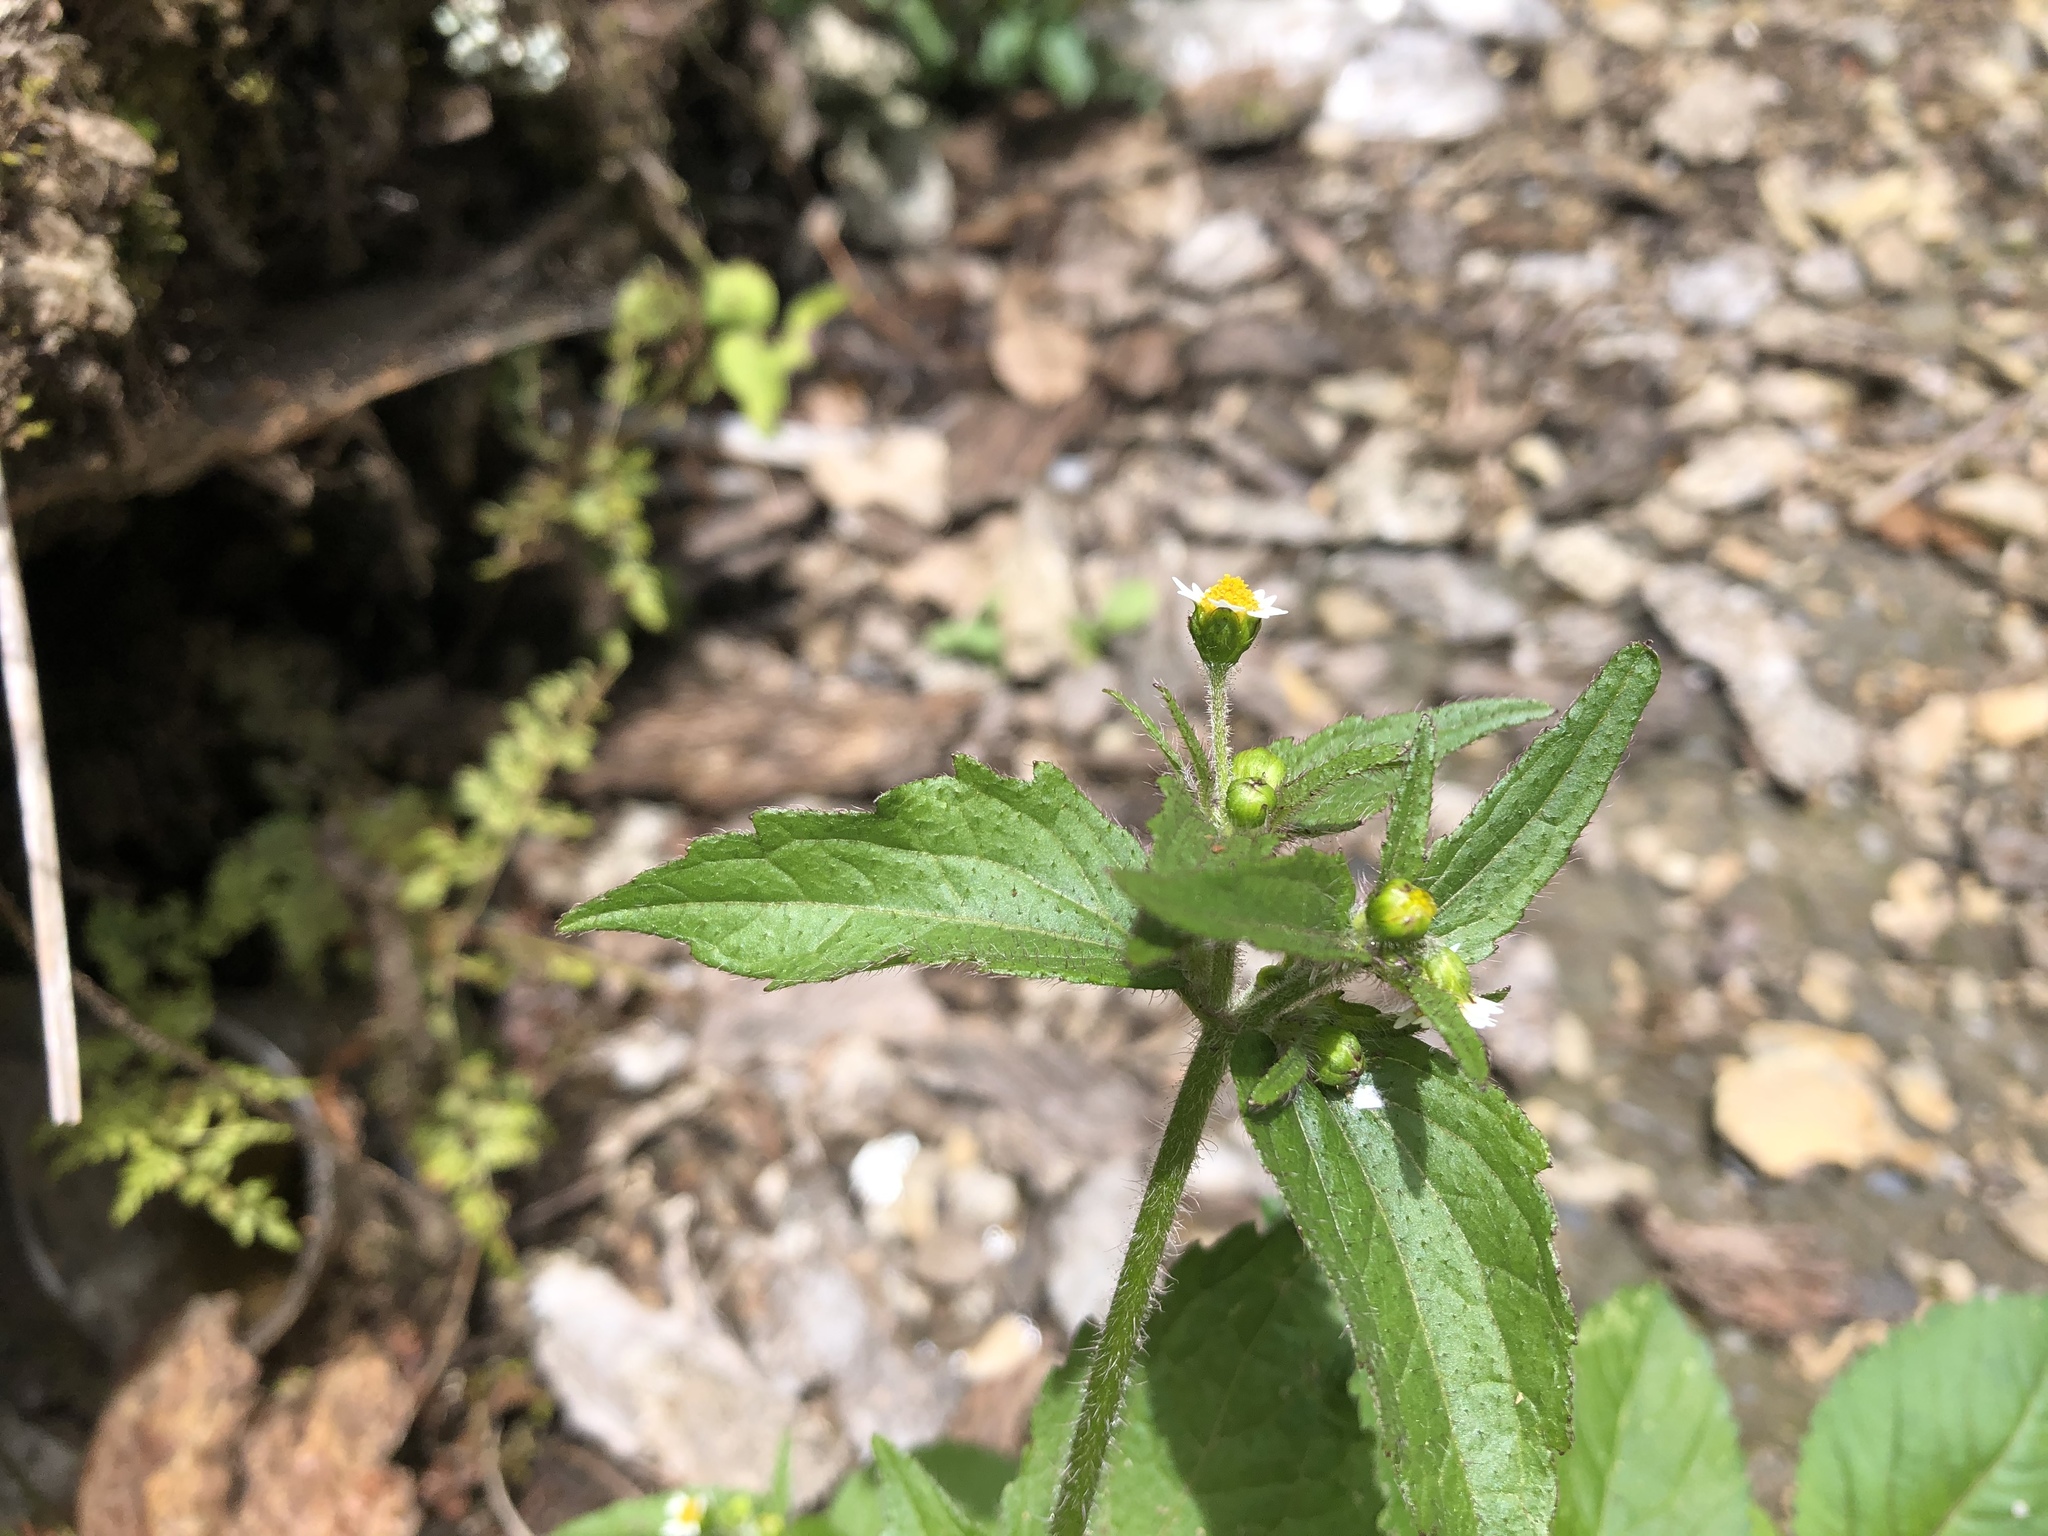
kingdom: Plantae
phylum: Tracheophyta
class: Magnoliopsida
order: Asterales
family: Asteraceae
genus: Galinsoga
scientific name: Galinsoga quadriradiata
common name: Shaggy soldier
